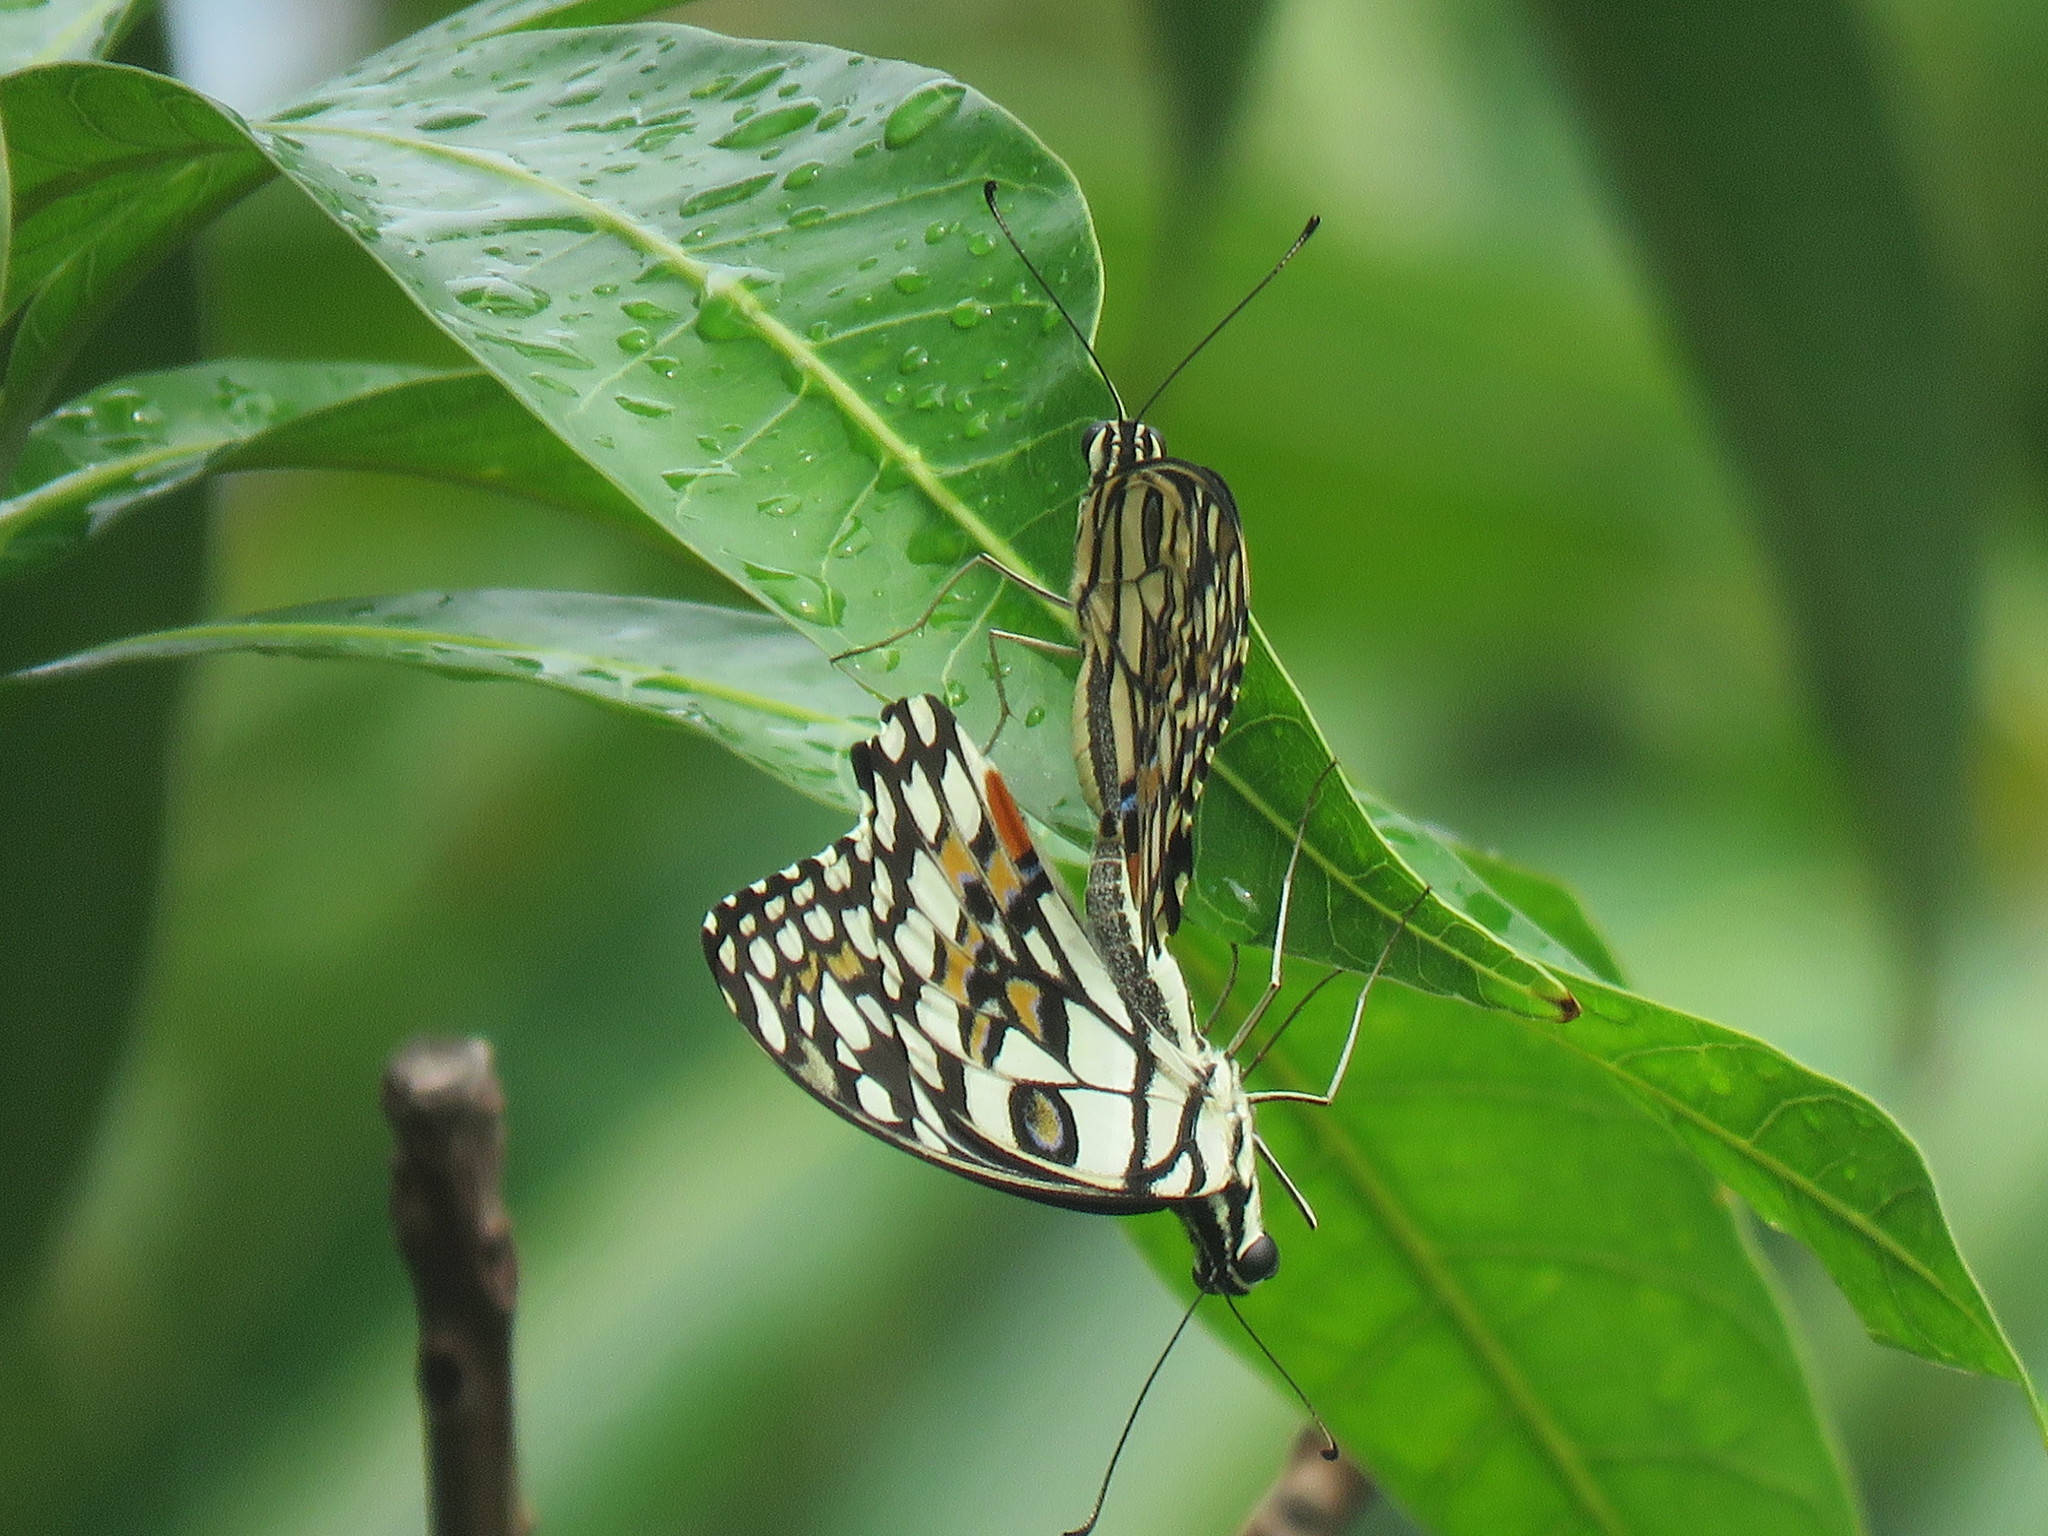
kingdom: Animalia
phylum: Arthropoda
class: Insecta
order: Lepidoptera
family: Papilionidae
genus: Papilio
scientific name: Papilio demoleus
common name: Lime butterfly
